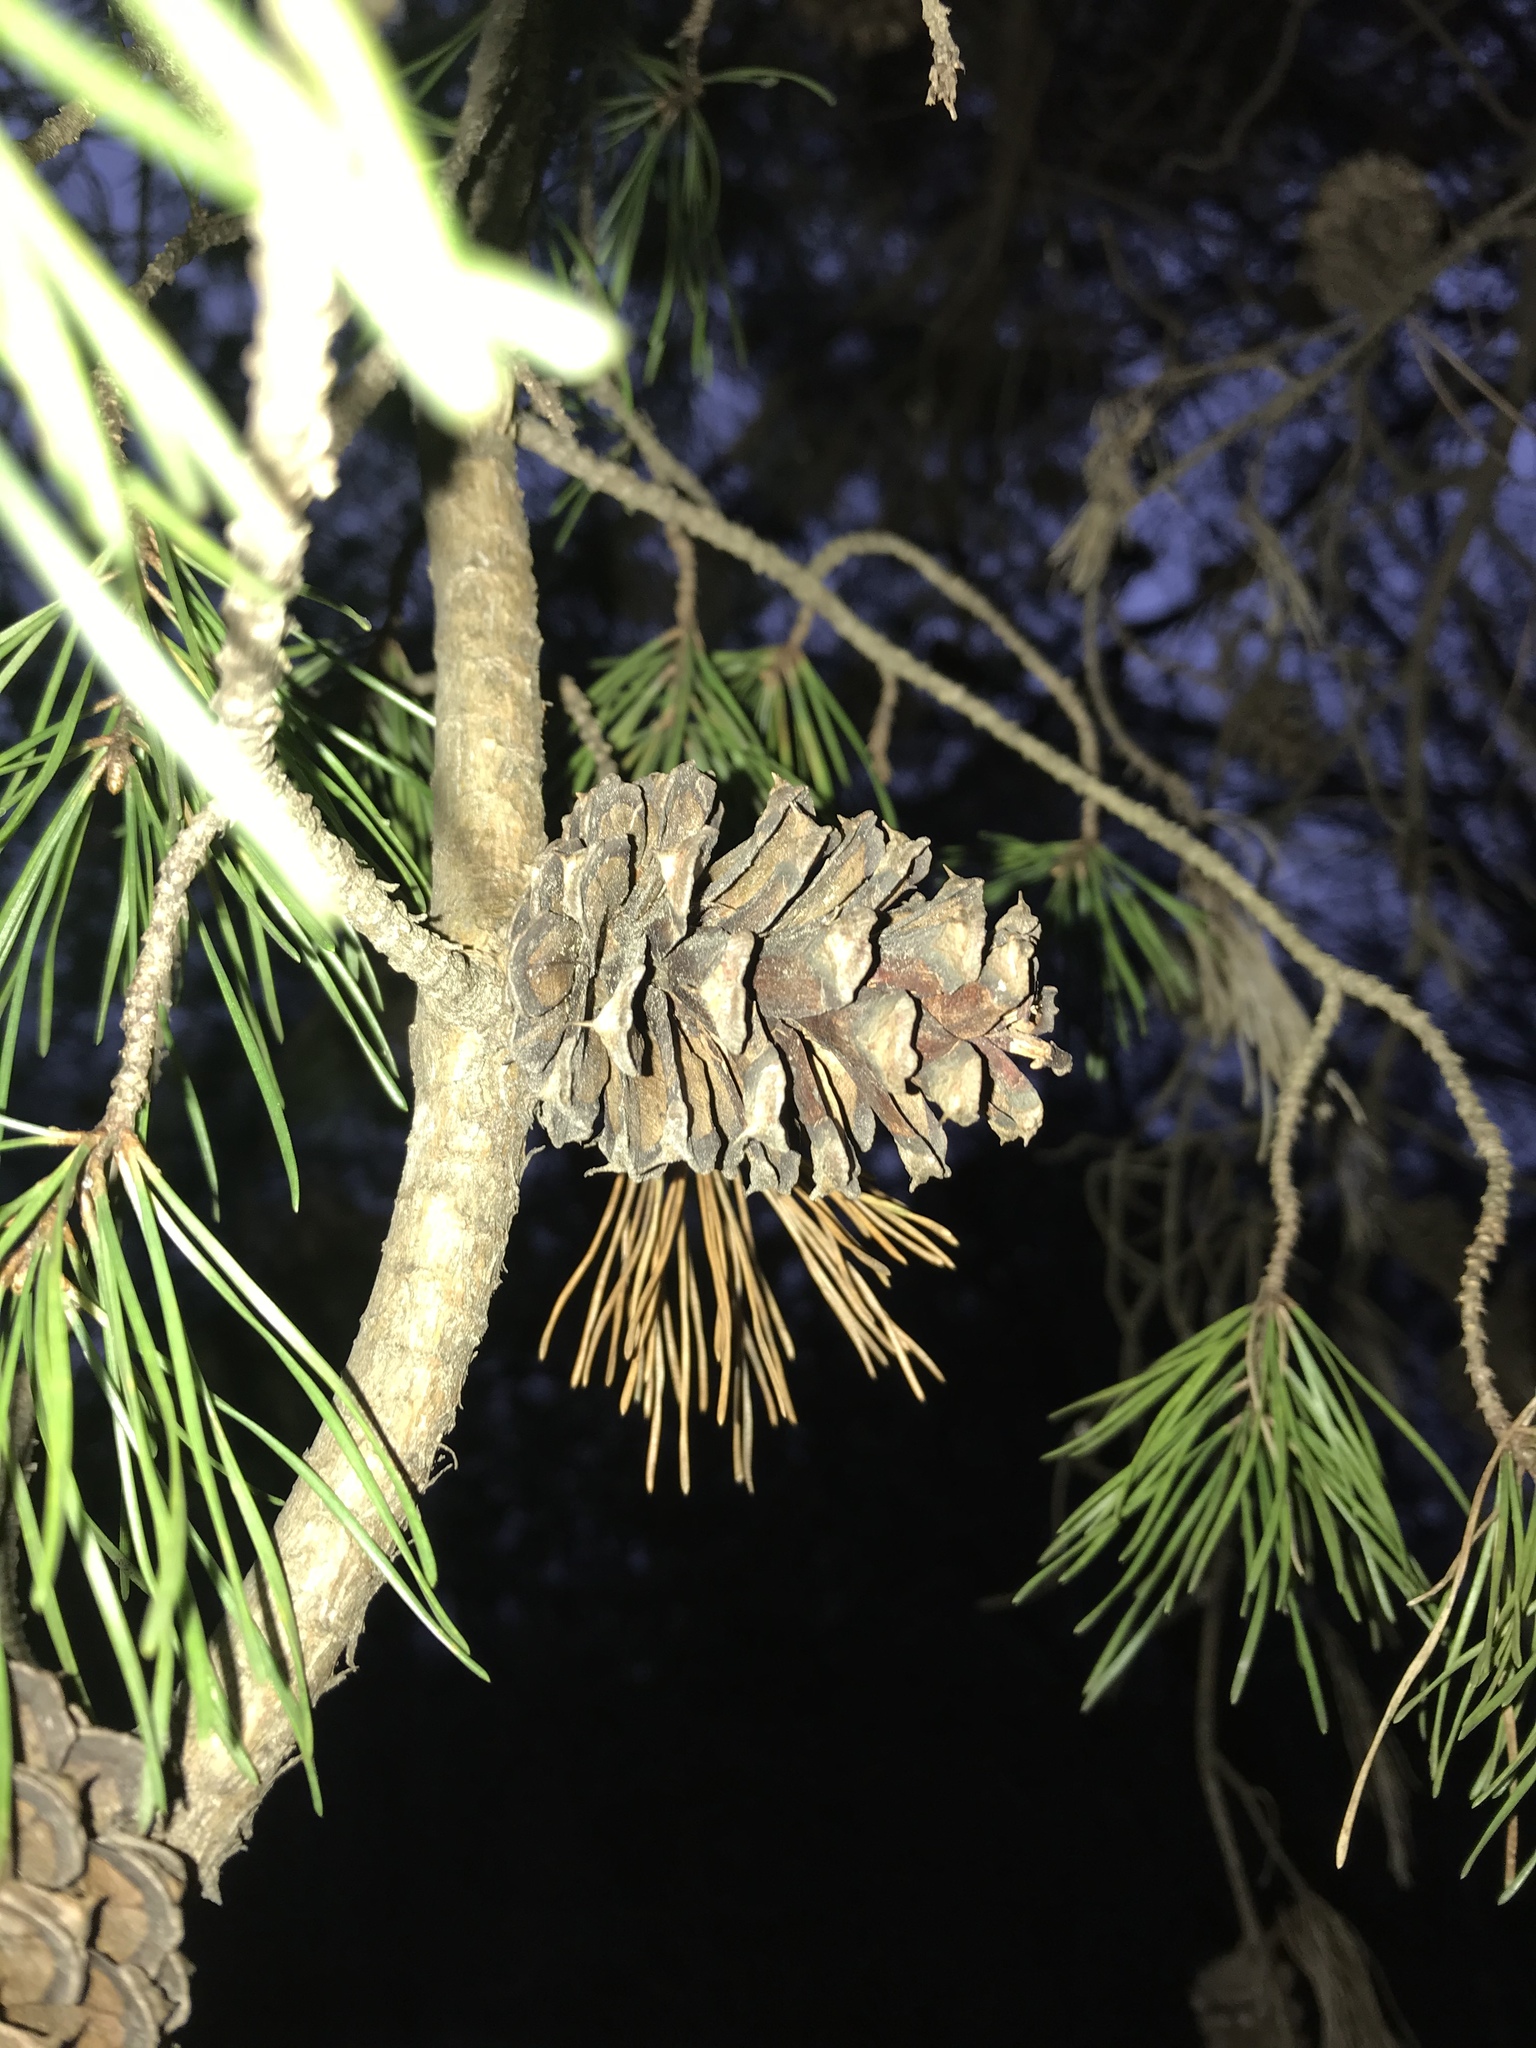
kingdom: Plantae
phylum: Tracheophyta
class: Pinopsida
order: Pinales
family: Pinaceae
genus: Pinus
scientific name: Pinus virginiana
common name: Scrub pine
